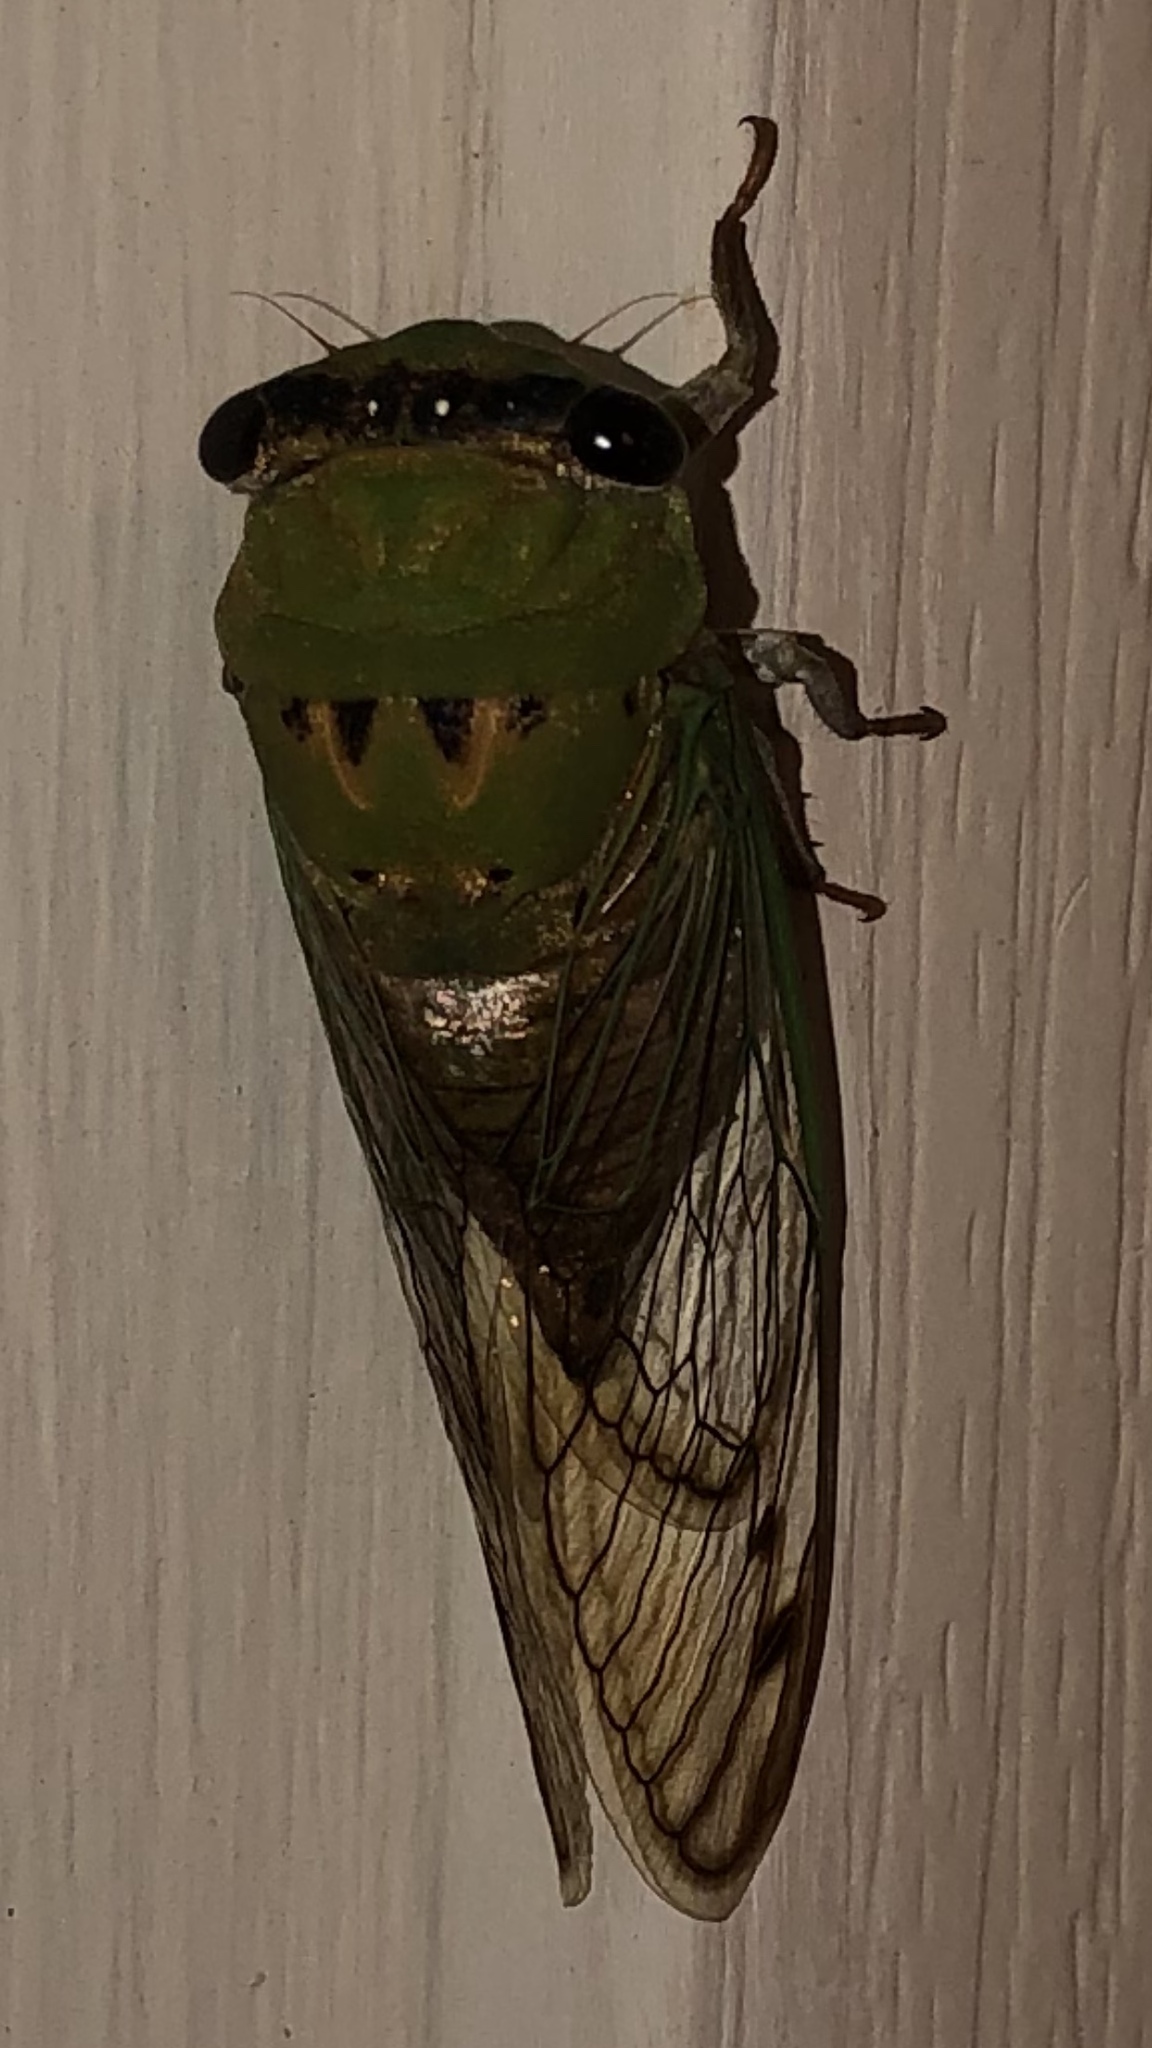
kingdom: Animalia
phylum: Arthropoda
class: Insecta
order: Hemiptera
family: Cicadidae
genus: Neotibicen
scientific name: Neotibicen superbus
